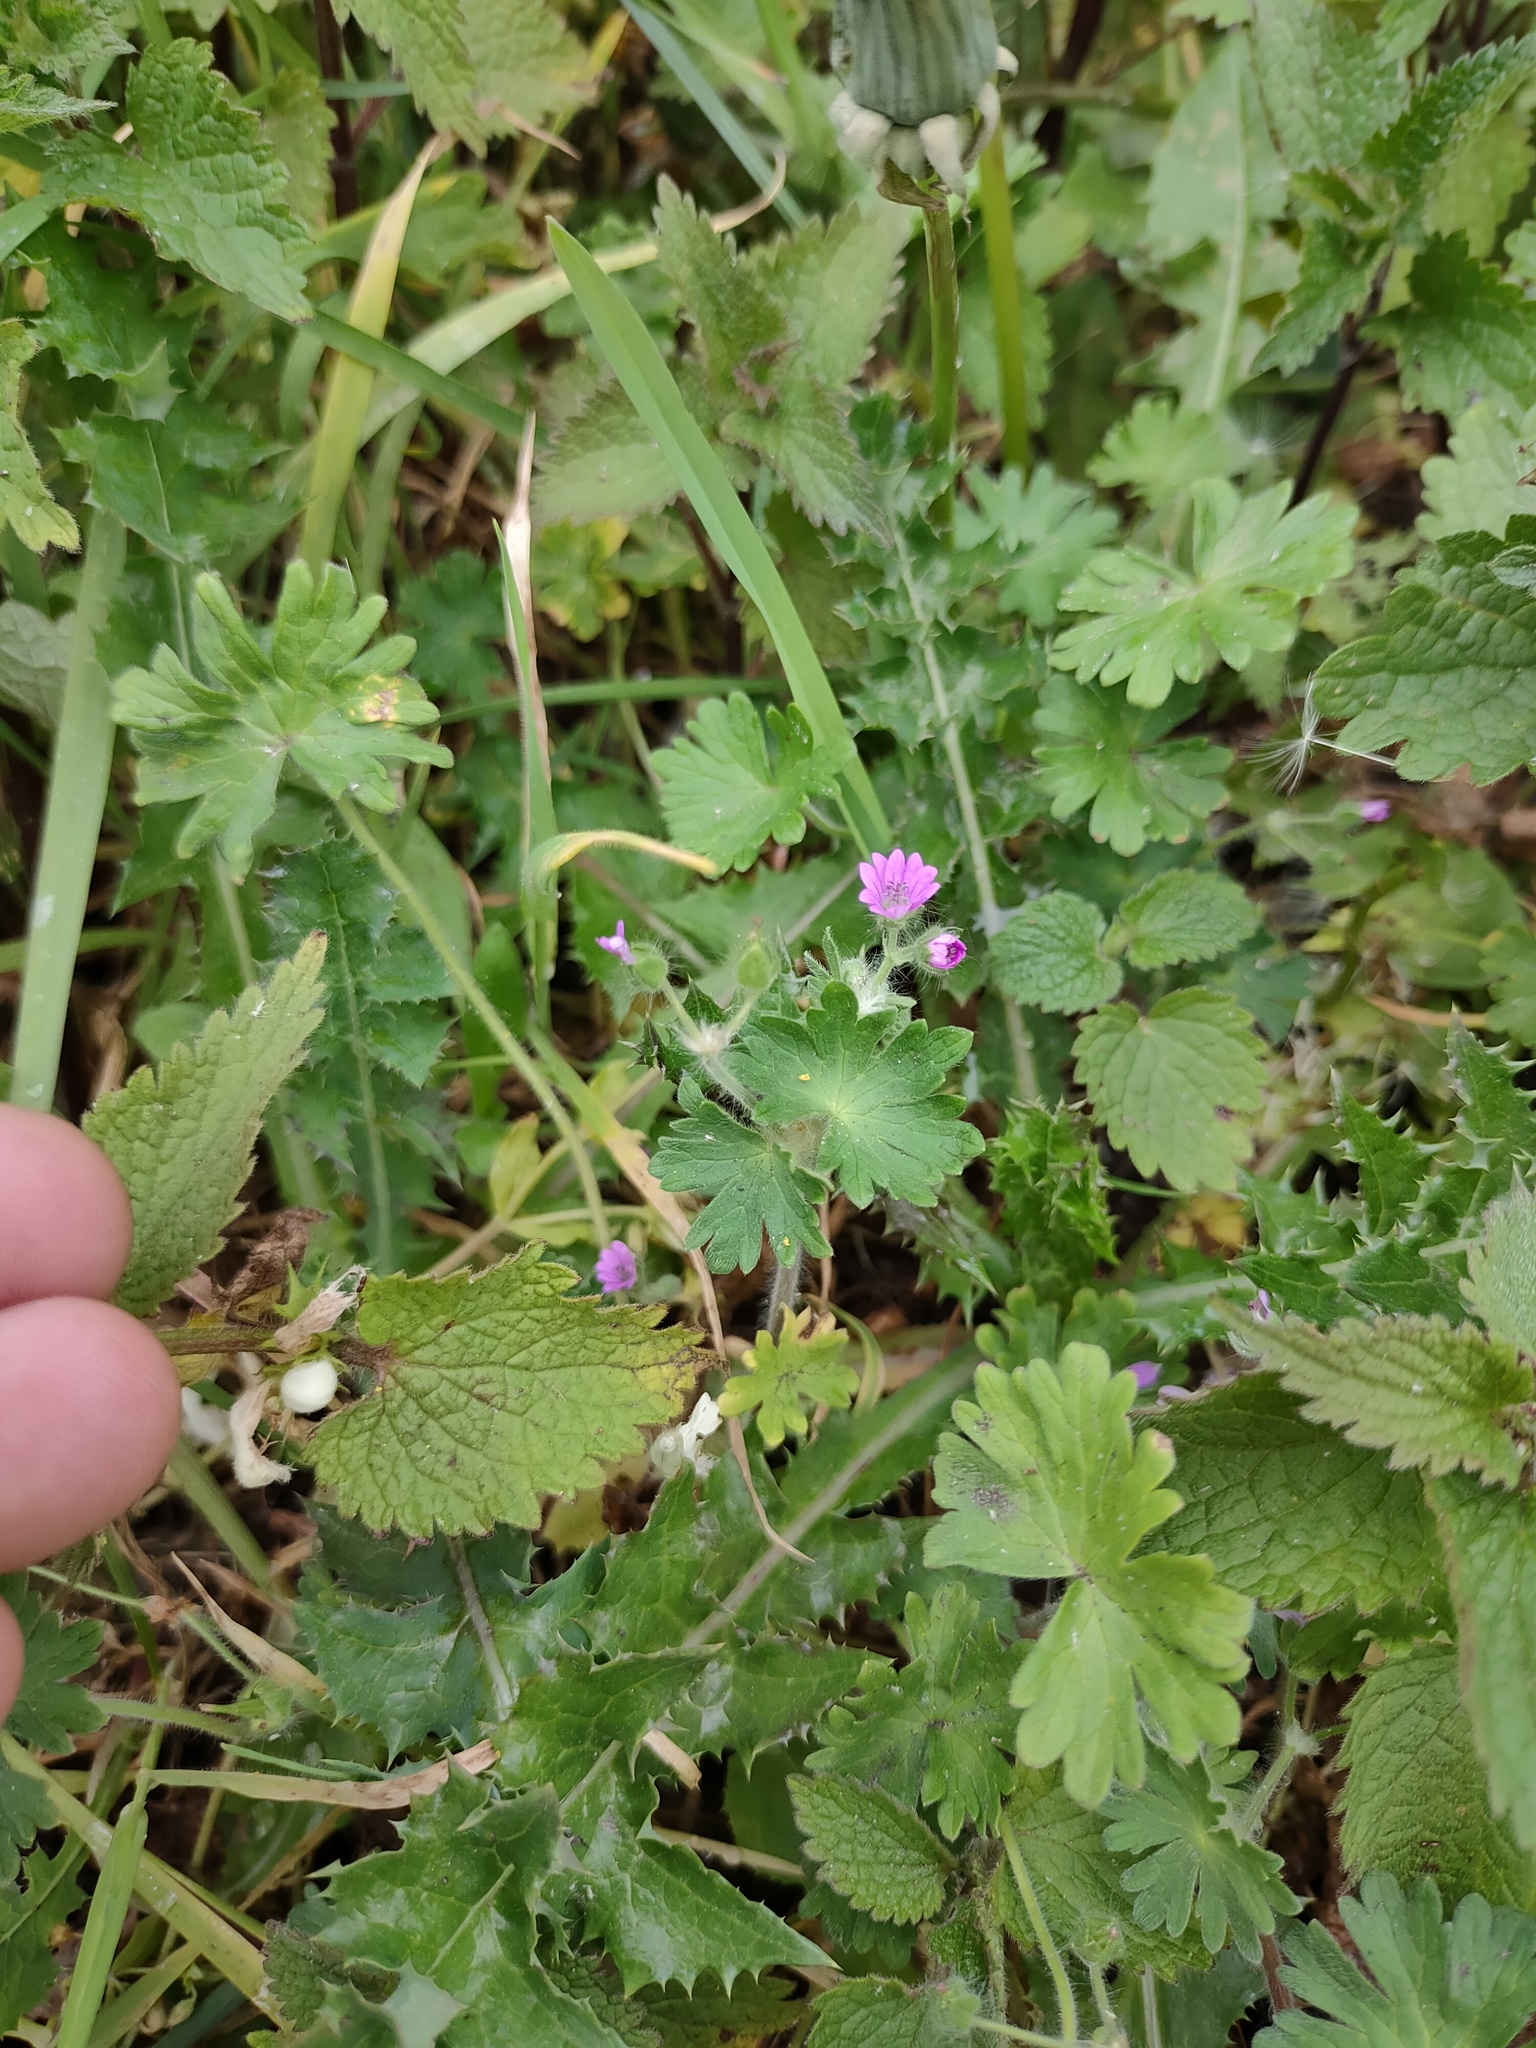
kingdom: Plantae
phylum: Tracheophyta
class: Magnoliopsida
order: Geraniales
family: Geraniaceae
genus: Geranium
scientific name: Geranium molle
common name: Dove's-foot crane's-bill
